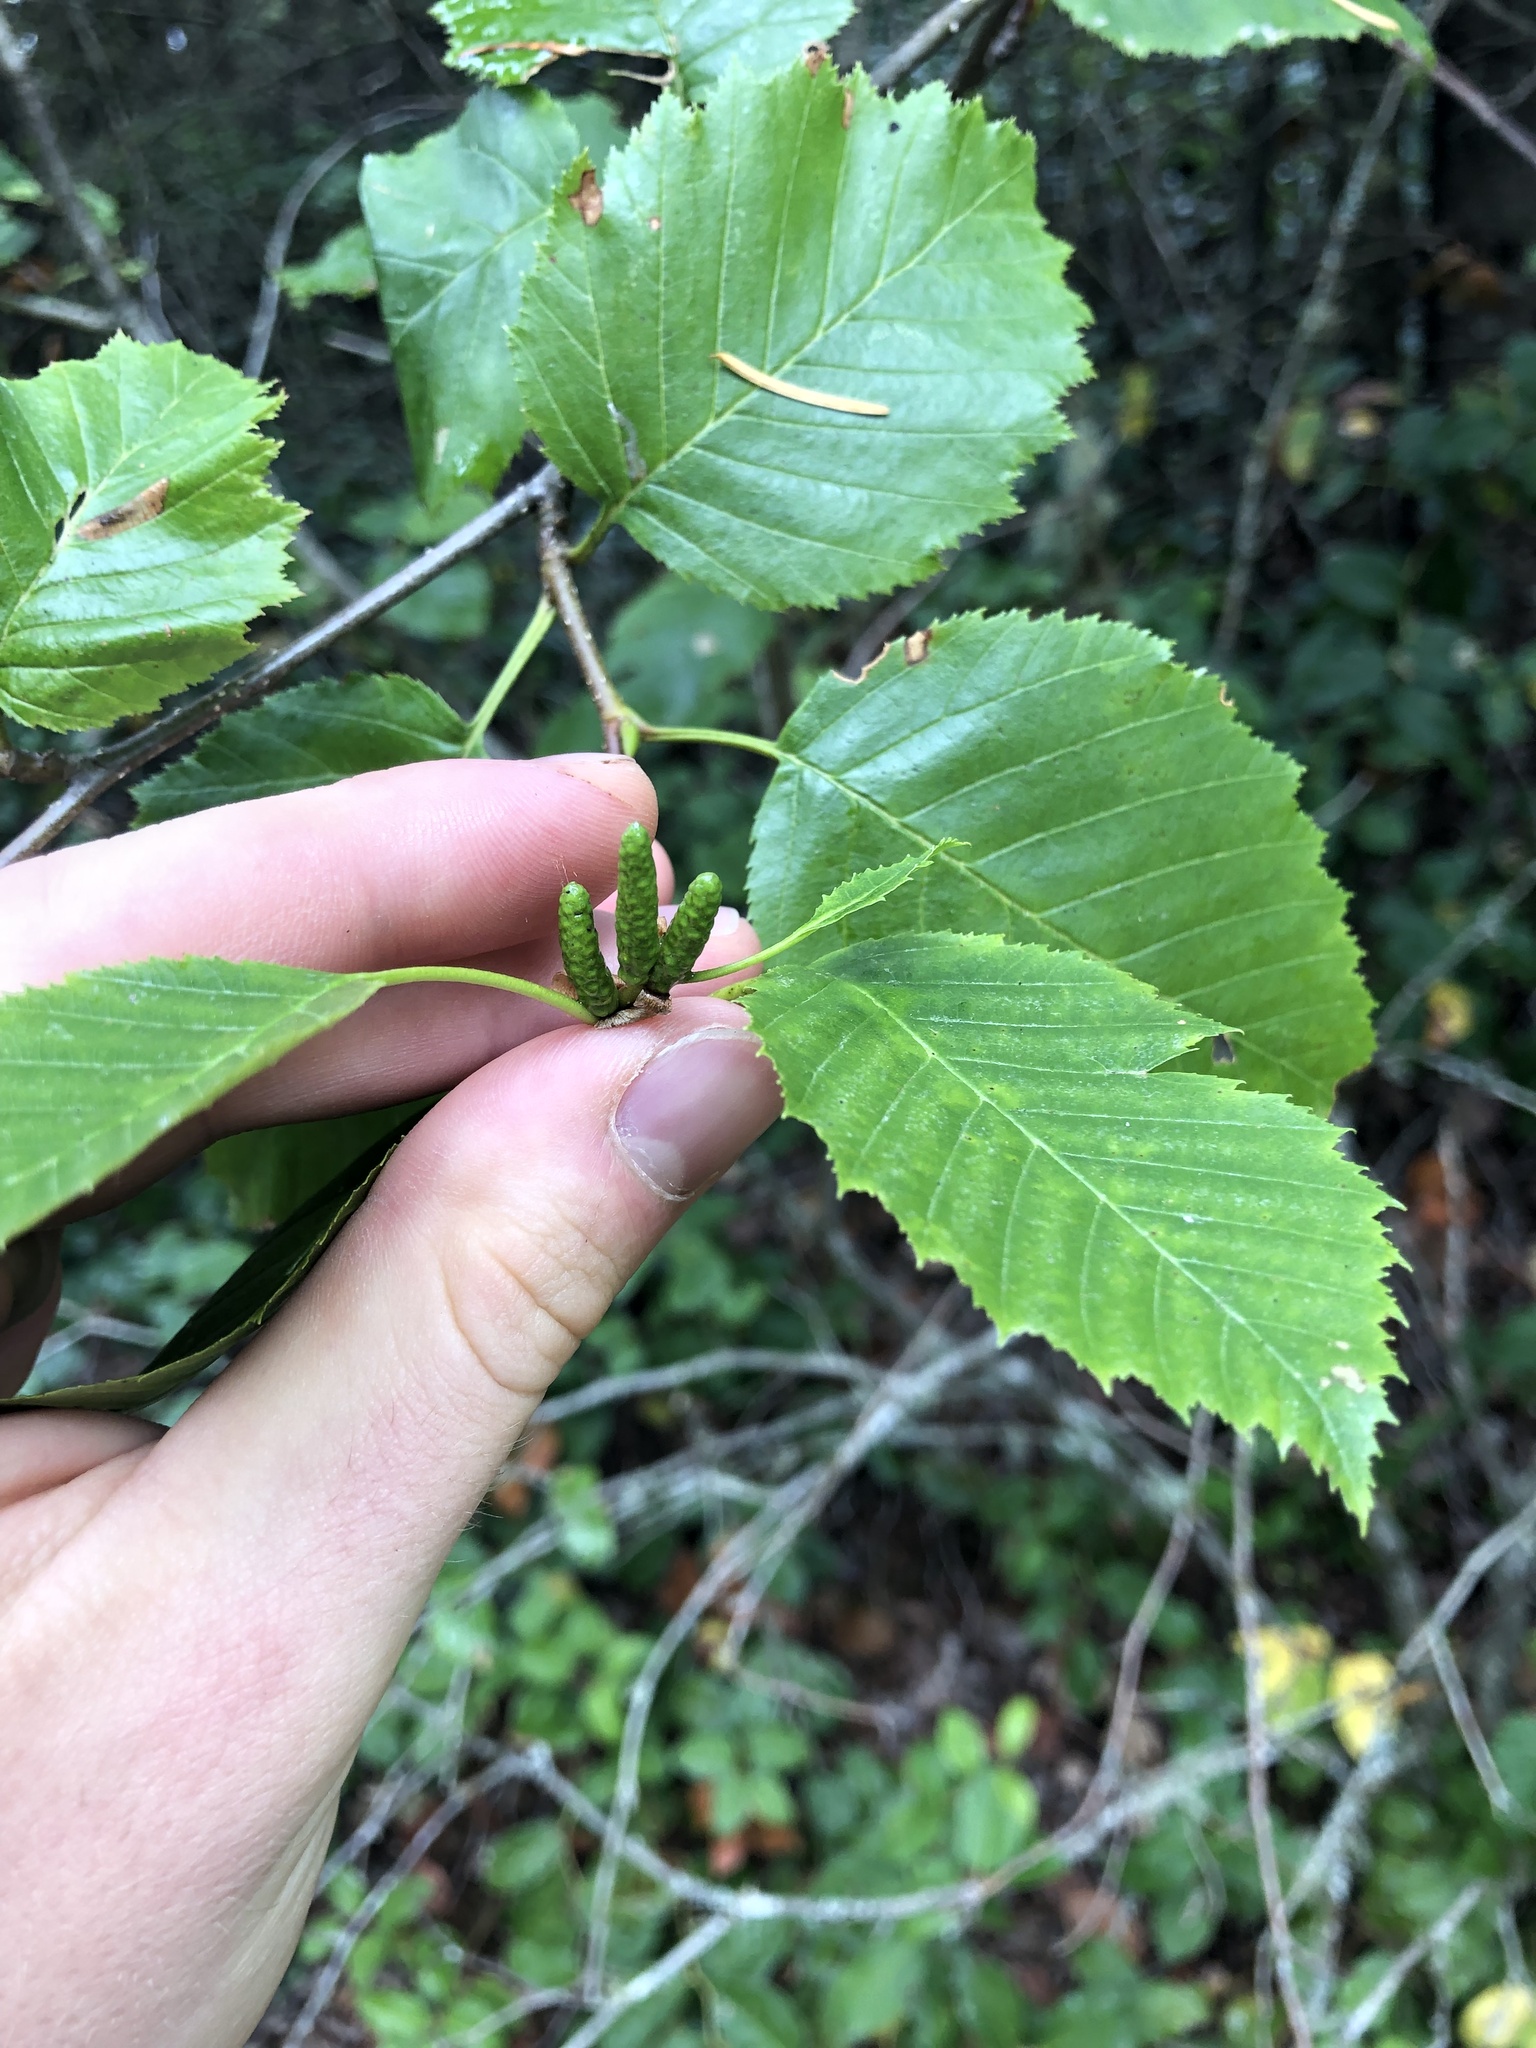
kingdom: Plantae
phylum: Tracheophyta
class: Magnoliopsida
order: Fagales
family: Betulaceae
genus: Alnus
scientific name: Alnus alnobetula
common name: Green alder
